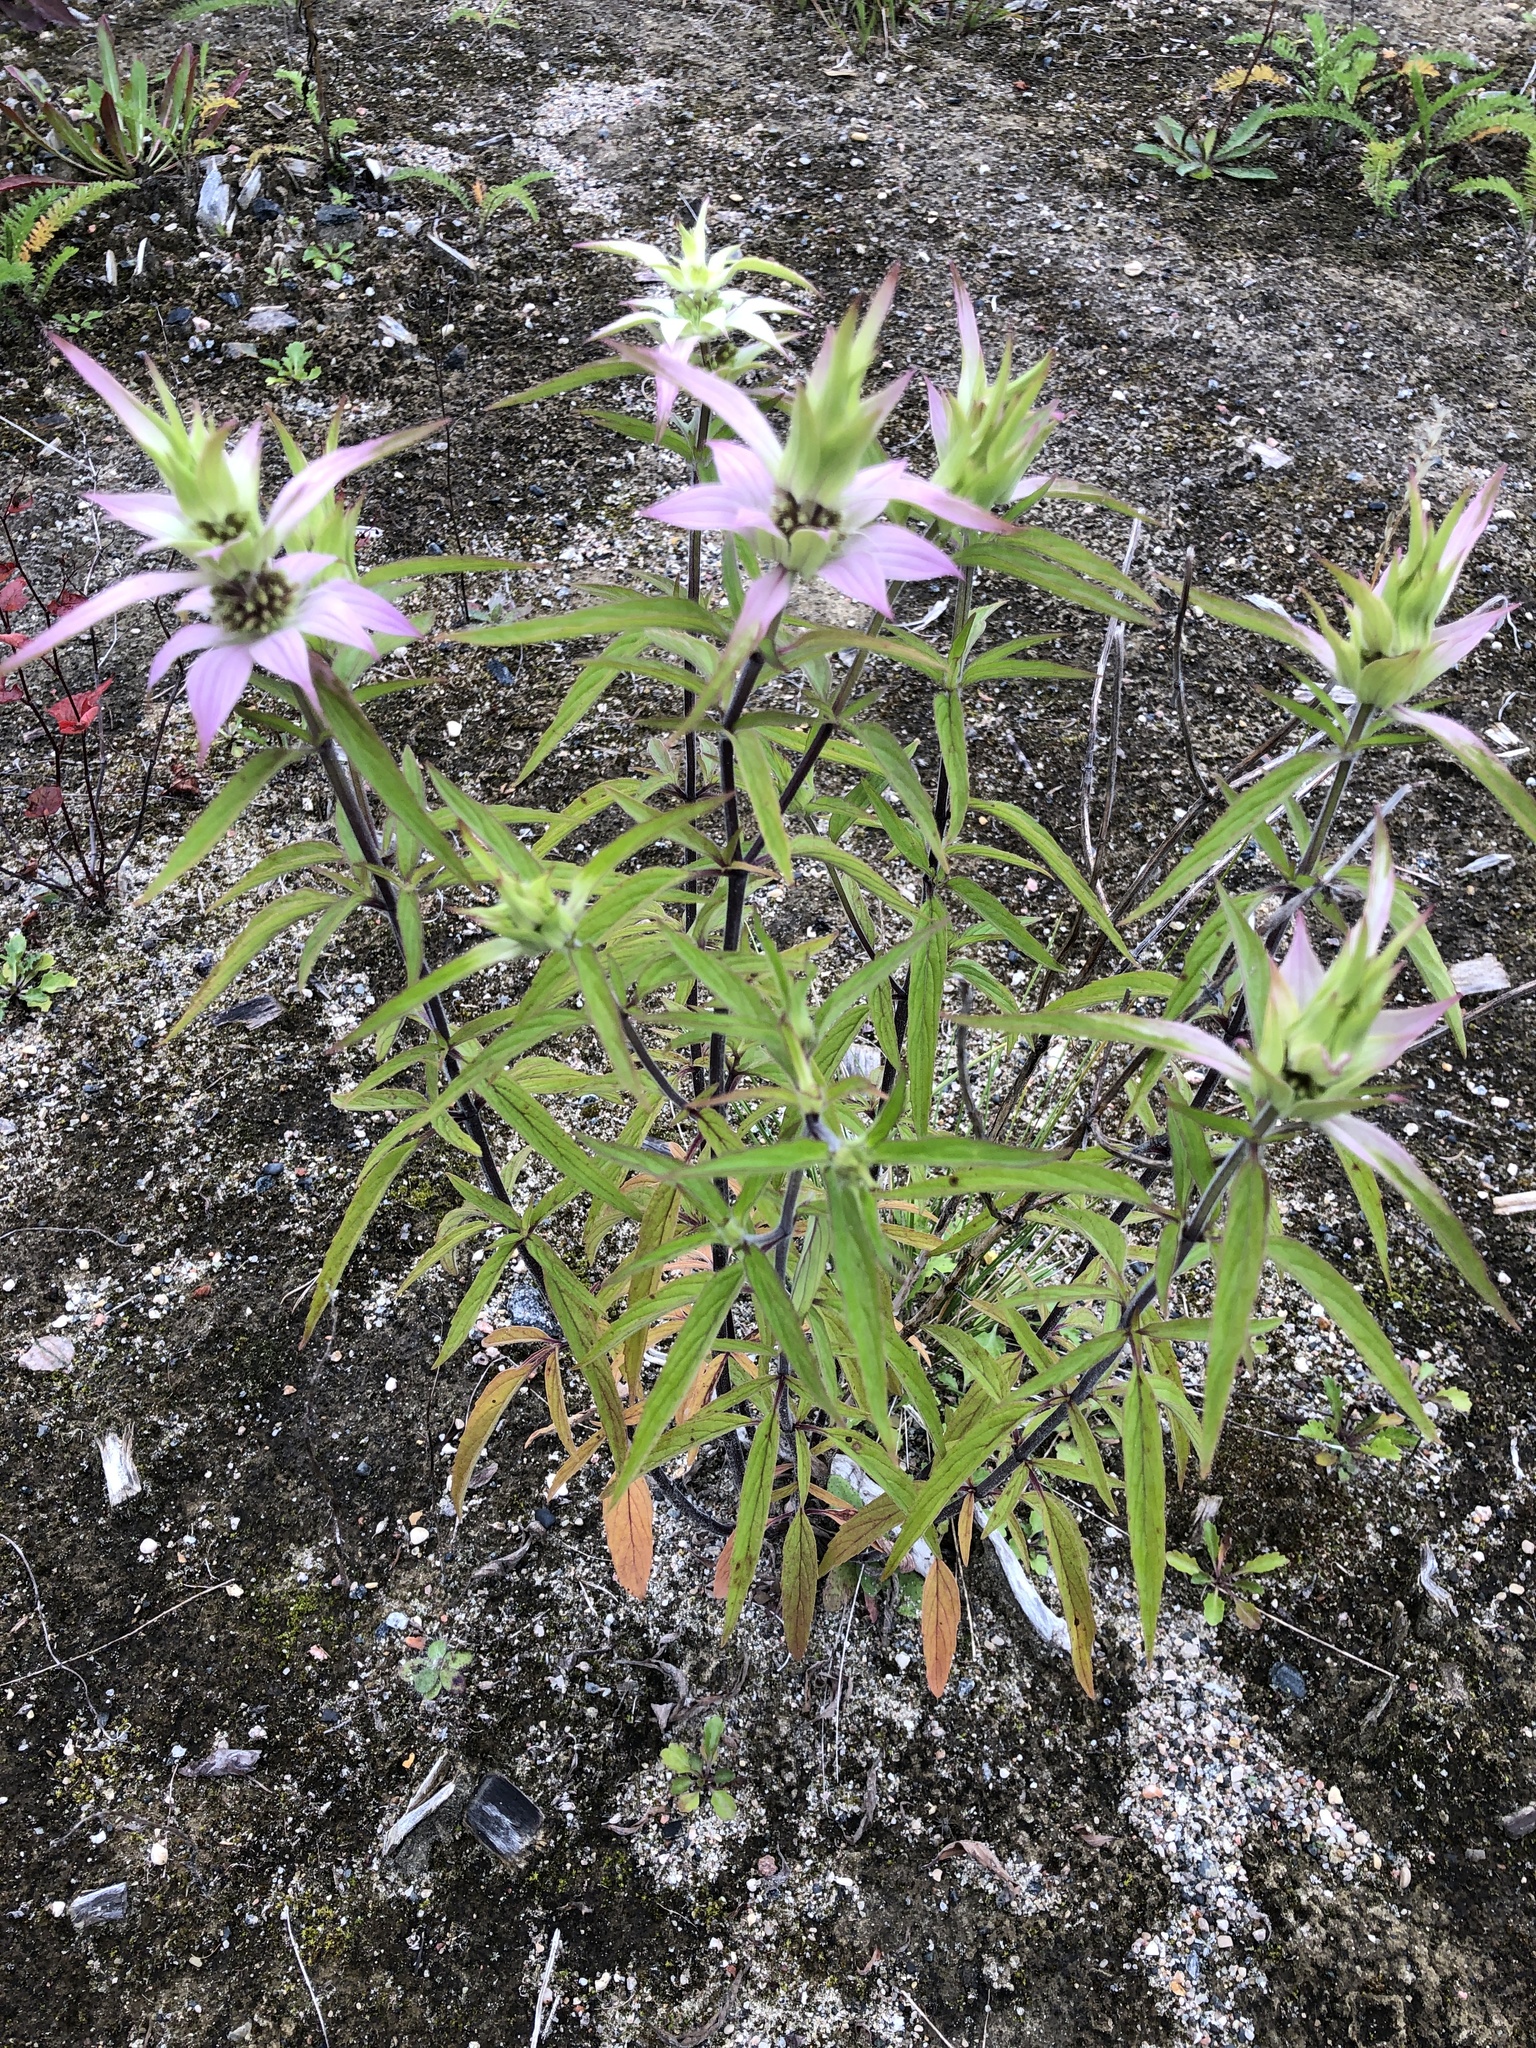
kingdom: Plantae
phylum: Tracheophyta
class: Magnoliopsida
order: Lamiales
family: Lamiaceae
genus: Monarda
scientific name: Monarda punctata
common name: Dotted monarda
